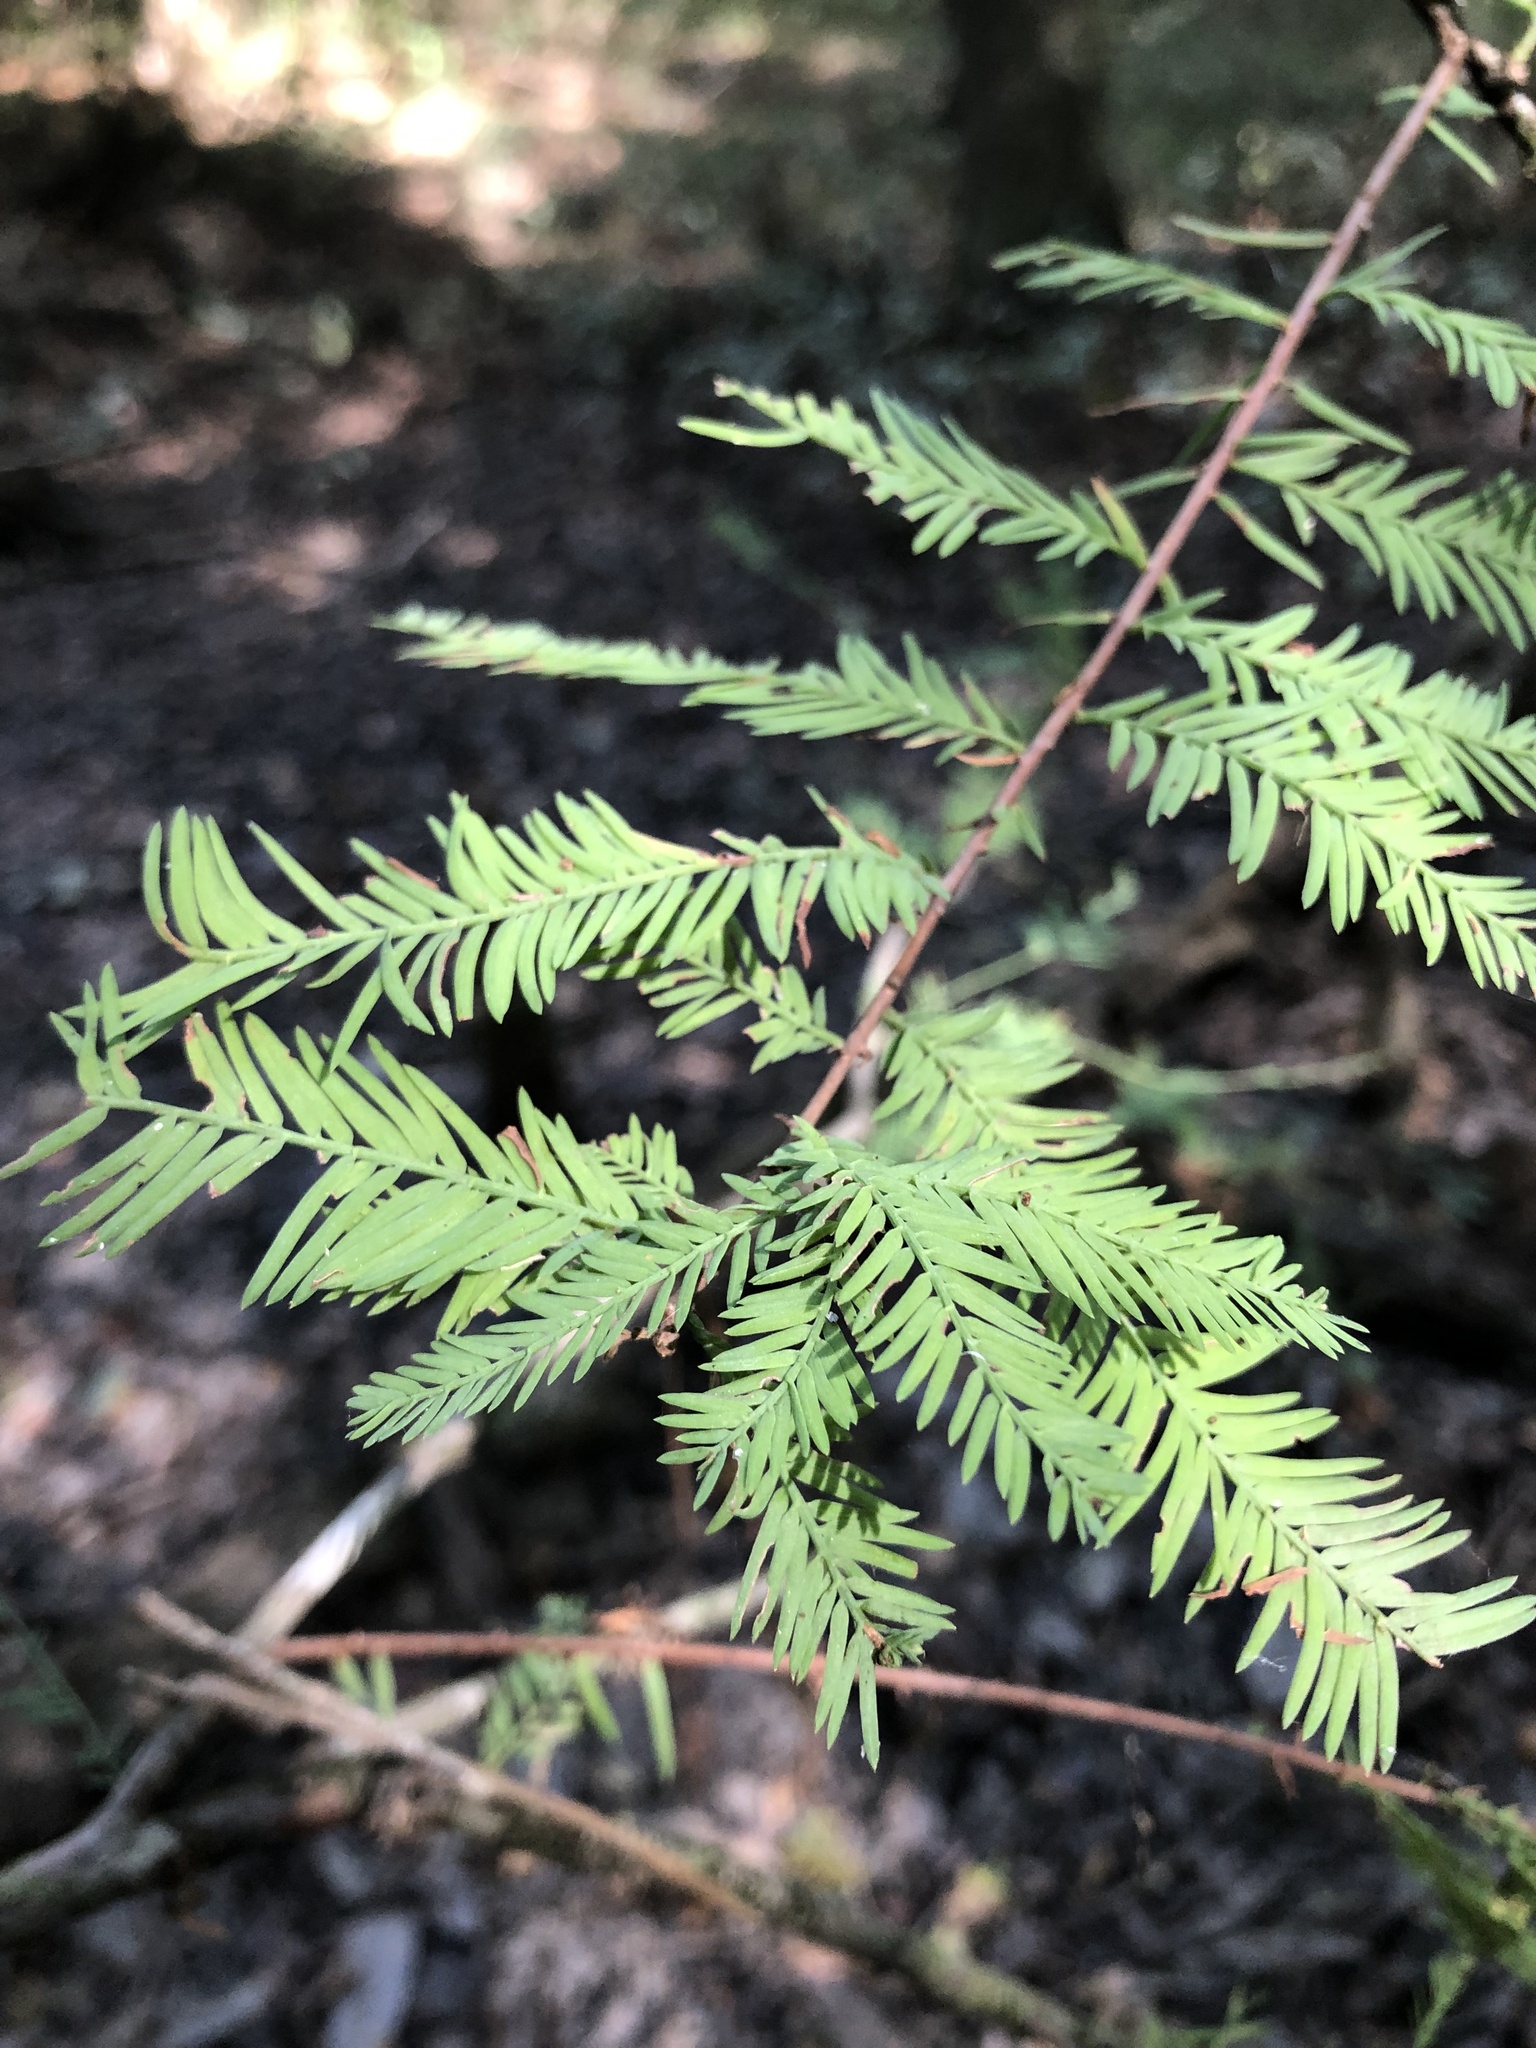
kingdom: Plantae
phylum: Tracheophyta
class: Pinopsida
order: Pinales
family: Cupressaceae
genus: Taxodium
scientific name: Taxodium distichum
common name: Bald cypress
